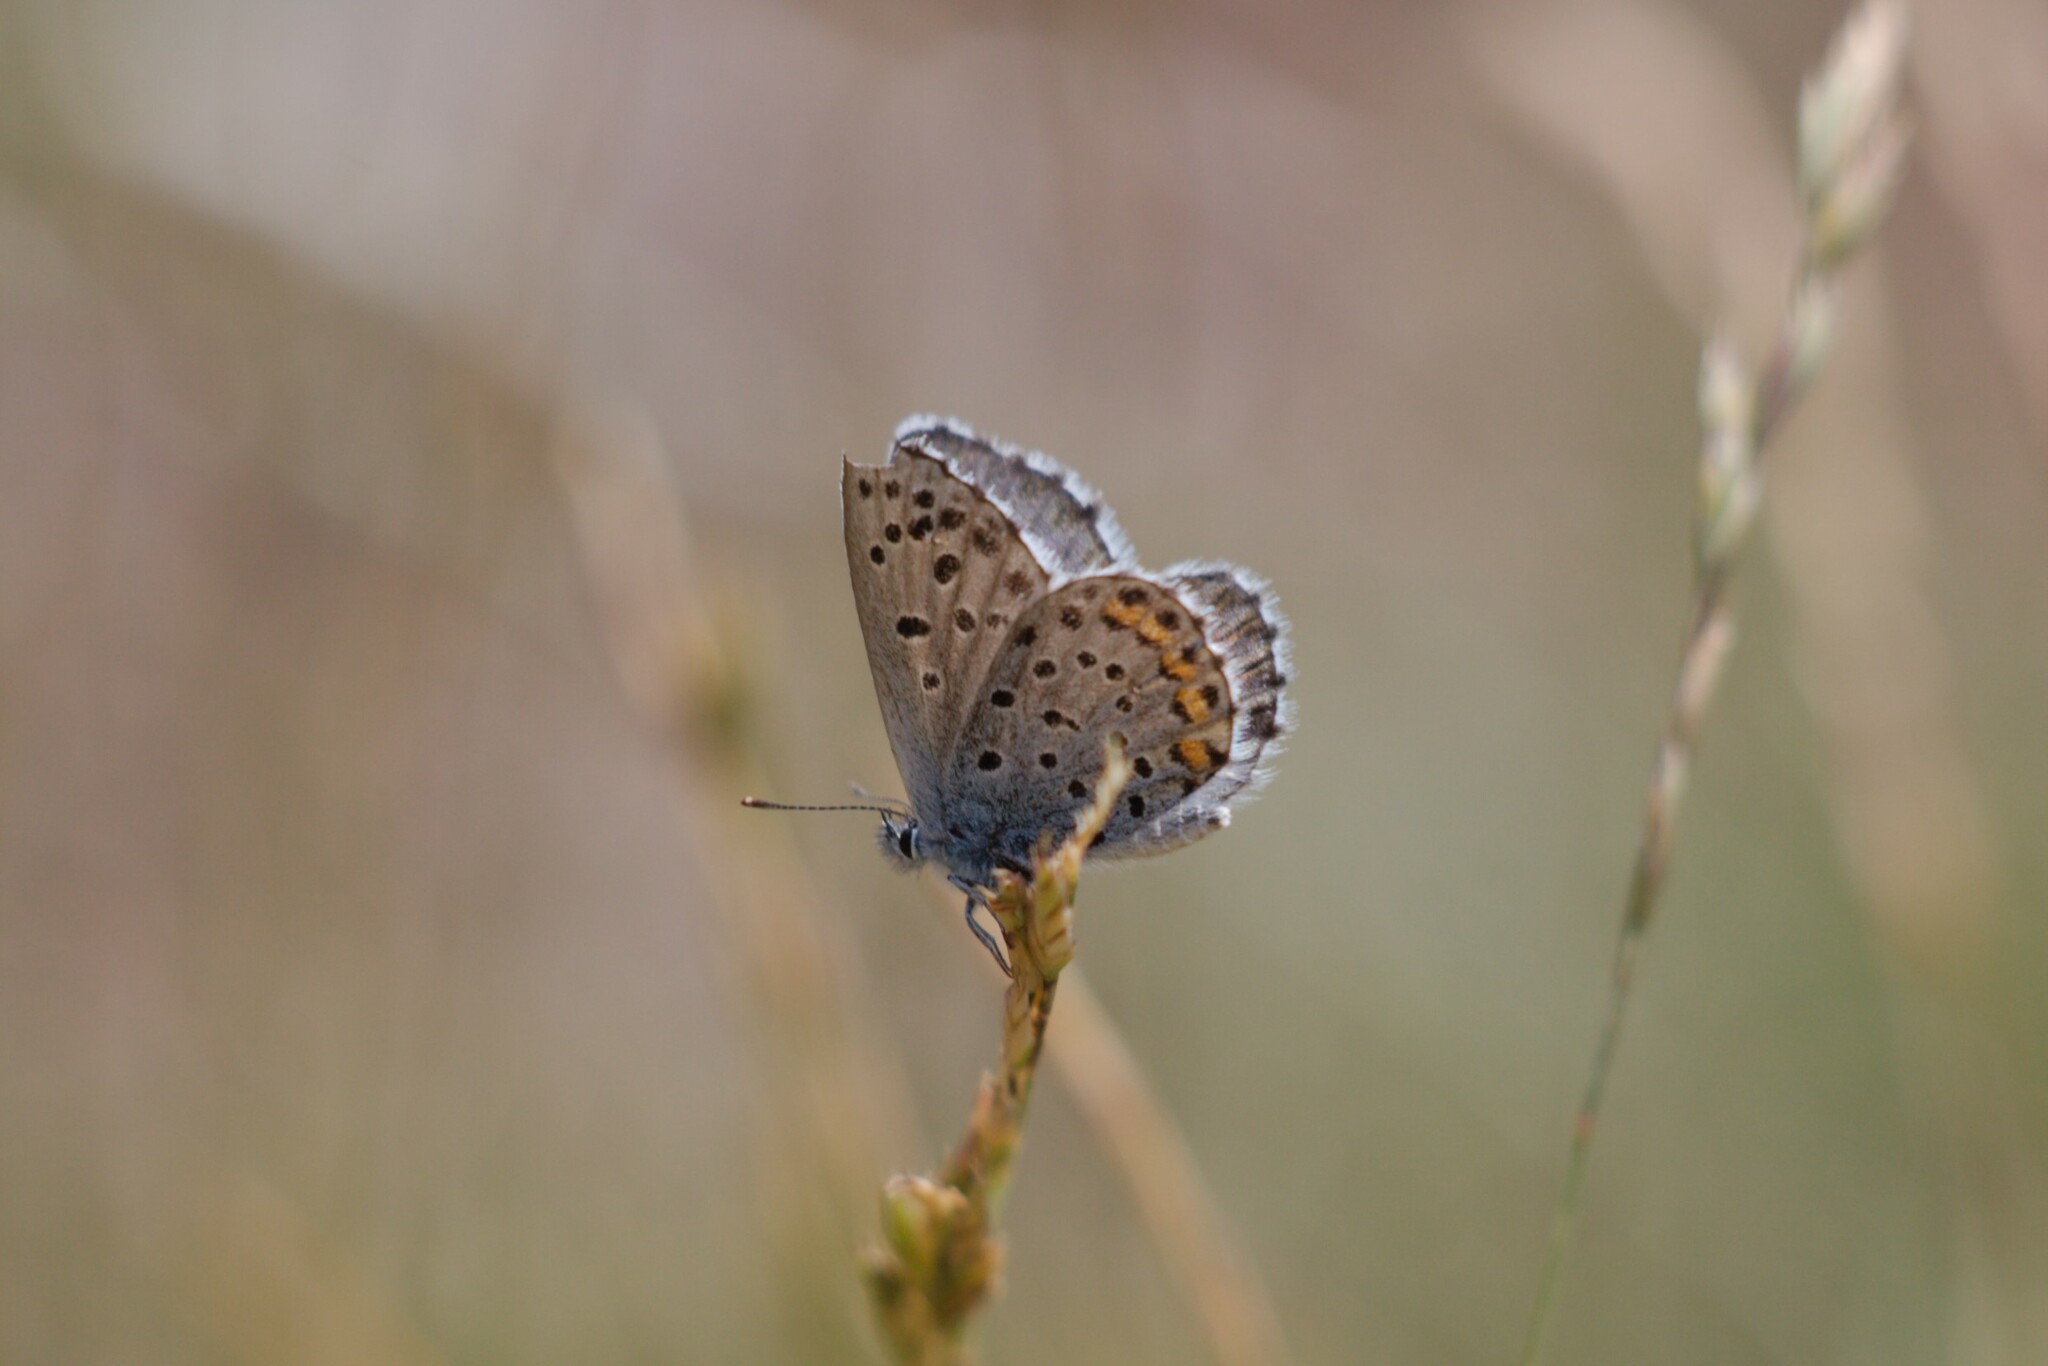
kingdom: Animalia
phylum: Arthropoda
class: Insecta
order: Lepidoptera
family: Lycaenidae
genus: Pseudophilotes
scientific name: Pseudophilotes baton
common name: Baton blue
